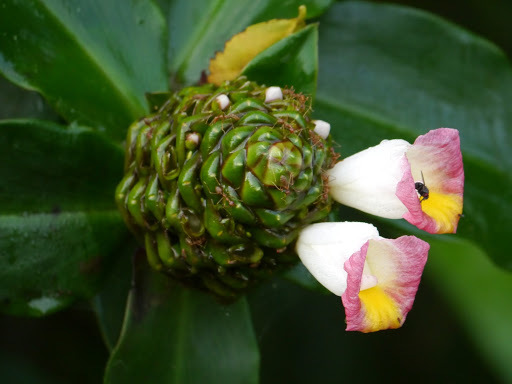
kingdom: Plantae
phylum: Tracheophyta
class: Liliopsida
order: Zingiberales
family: Costaceae
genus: Costus
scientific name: Costus lucanusianus
